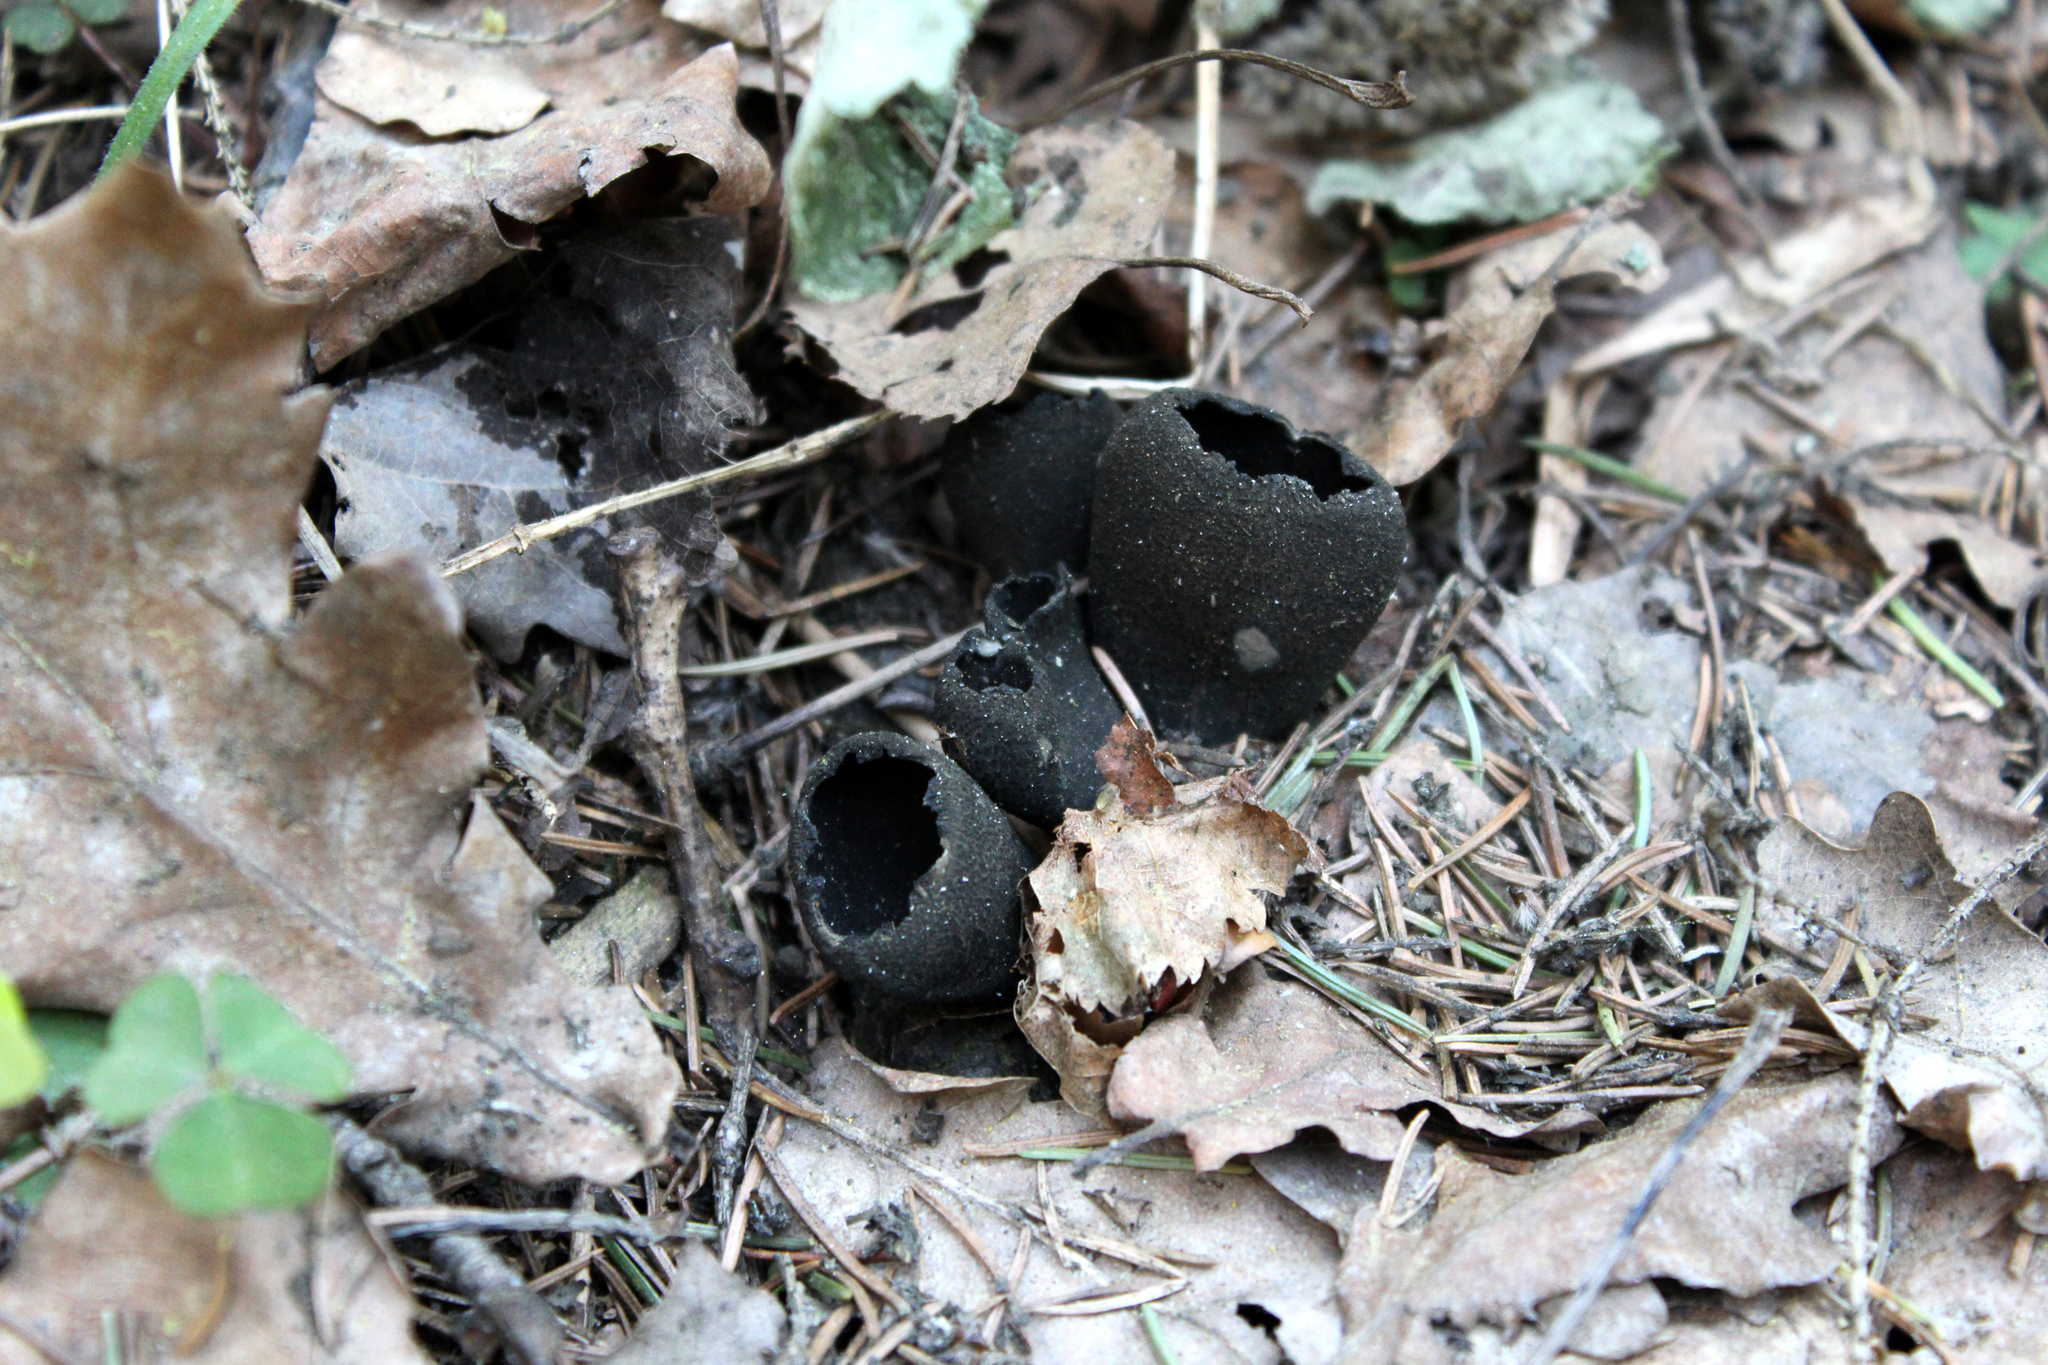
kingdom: Fungi
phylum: Ascomycota
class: Pezizomycetes
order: Pezizales
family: Sarcosomataceae
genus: Urnula
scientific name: Urnula craterium
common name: Devil's urn
